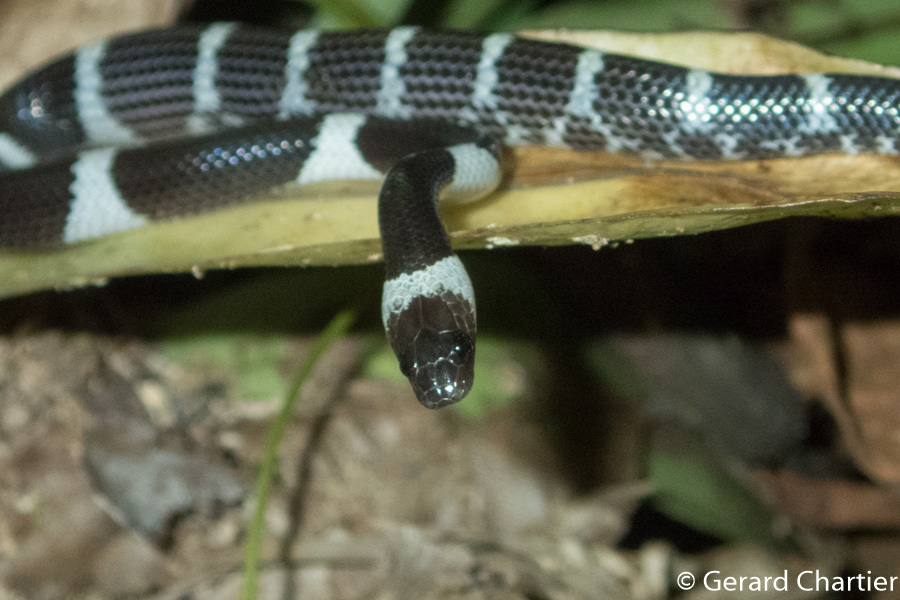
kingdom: Animalia
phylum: Chordata
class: Squamata
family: Colubridae
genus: Lycodon
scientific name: Lycodon laoensis
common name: Laotian wolf snake
